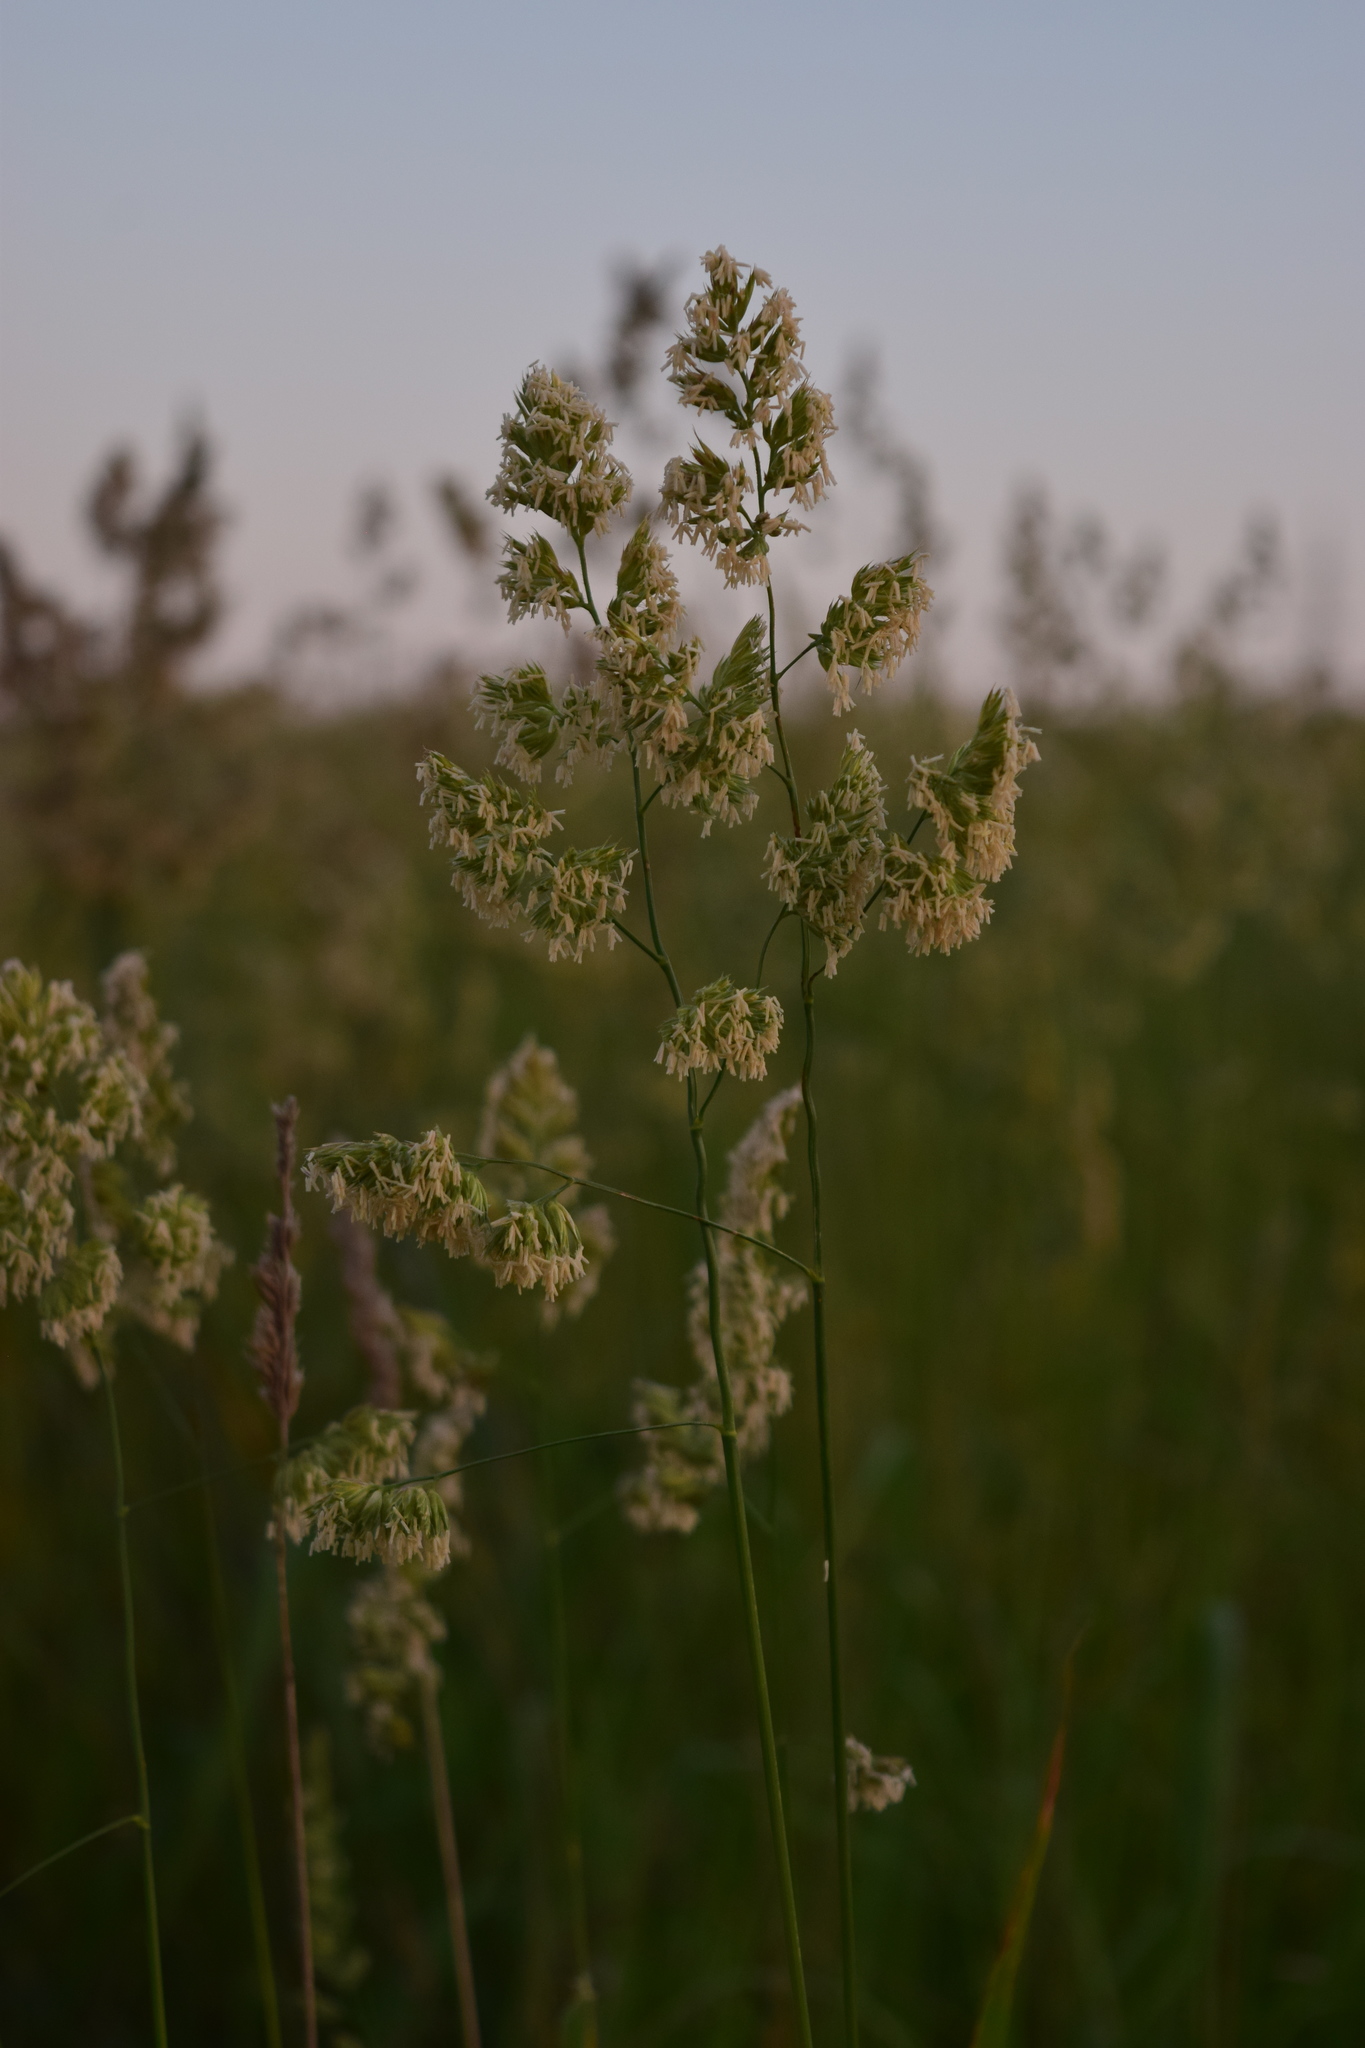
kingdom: Plantae
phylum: Tracheophyta
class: Liliopsida
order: Poales
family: Poaceae
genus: Dactylis
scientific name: Dactylis glomerata
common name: Orchardgrass
